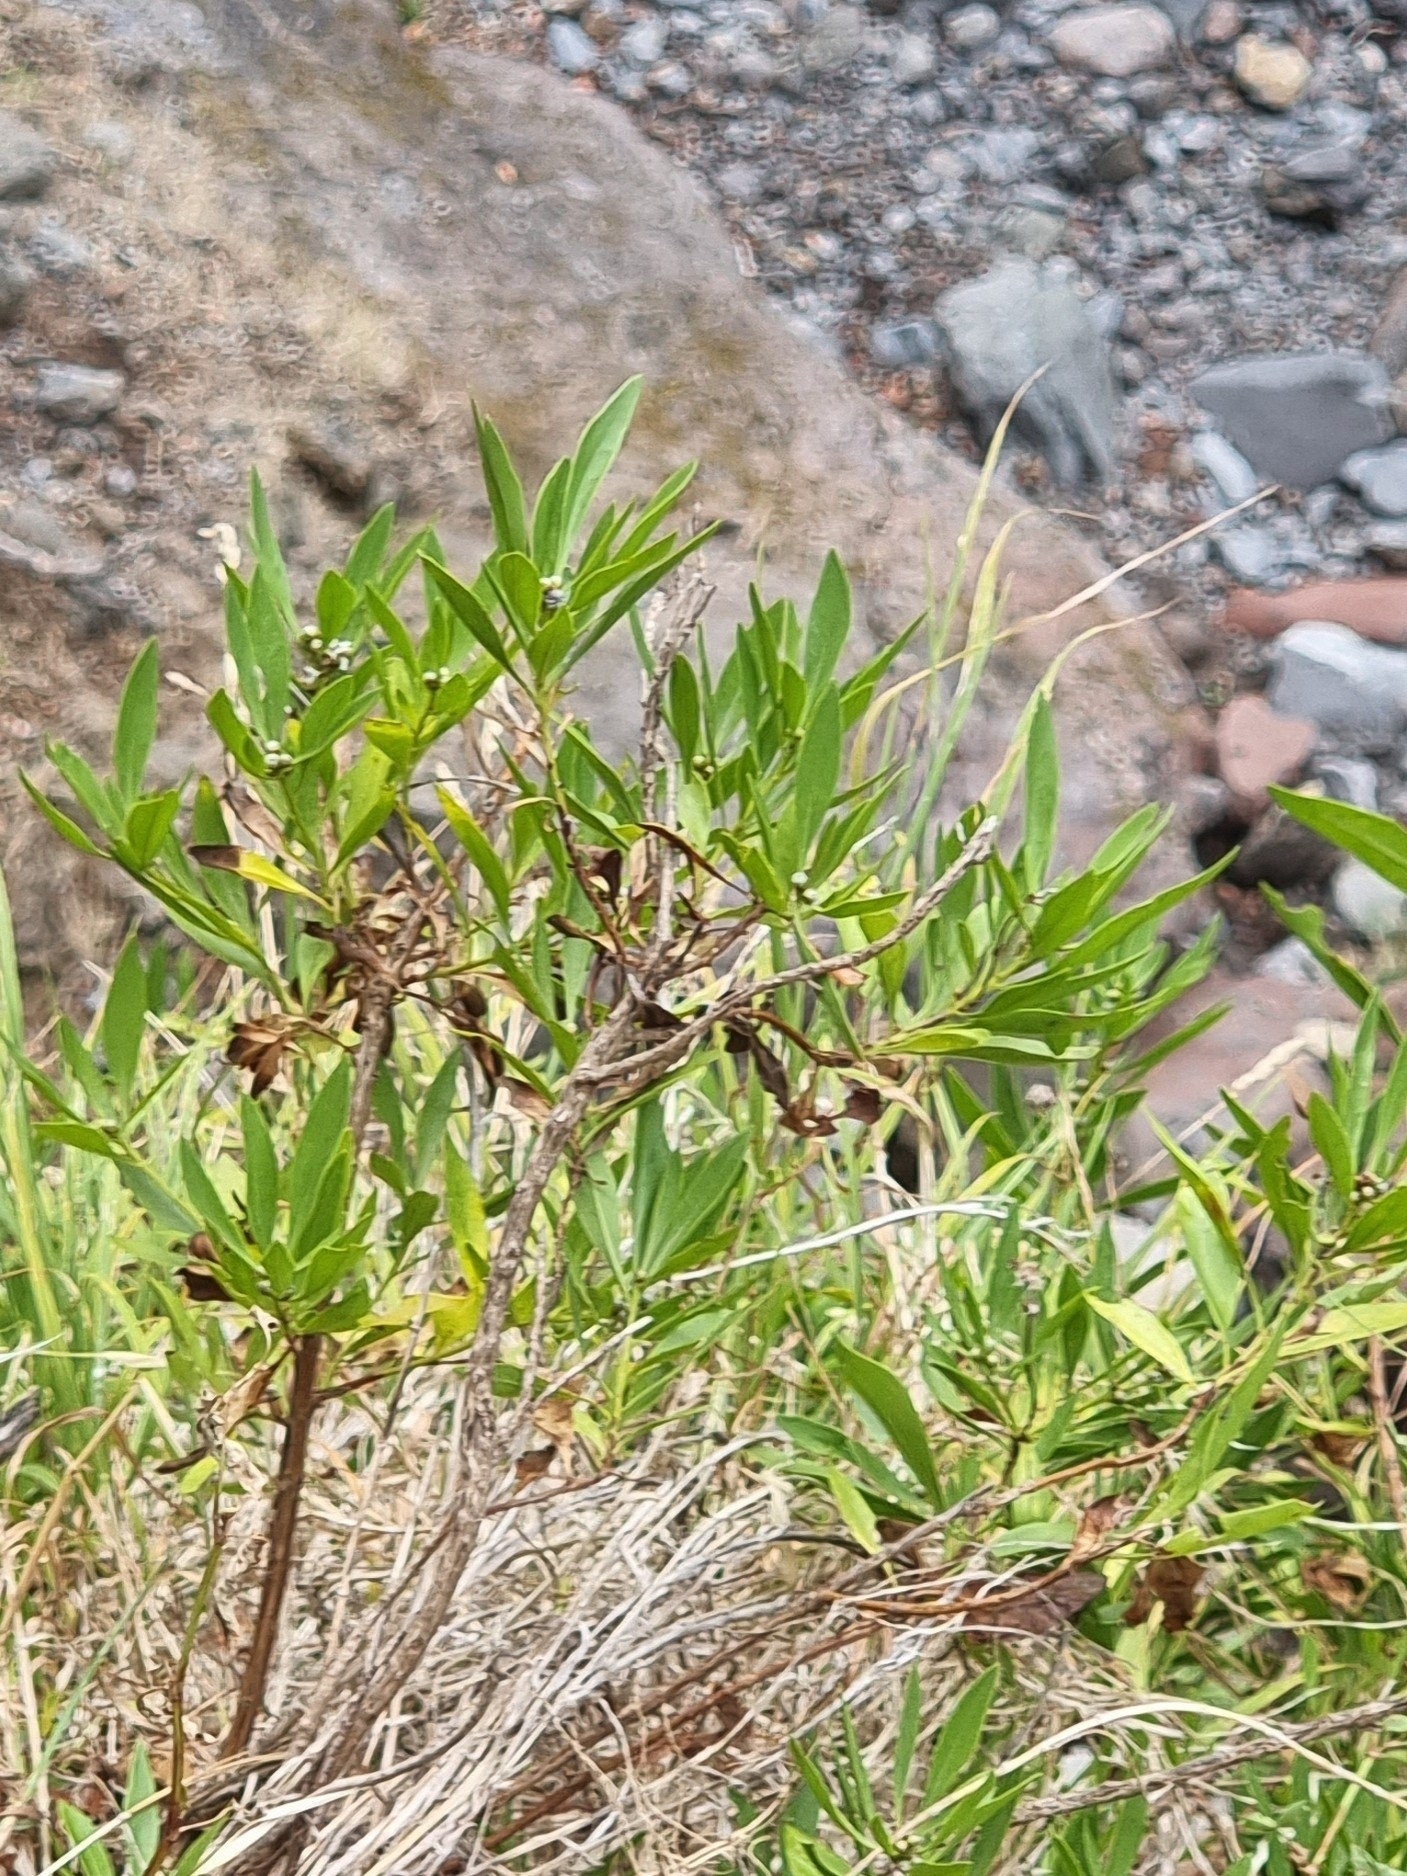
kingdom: Plantae
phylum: Tracheophyta
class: Magnoliopsida
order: Lamiales
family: Plantaginaceae
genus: Globularia
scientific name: Globularia salicina
